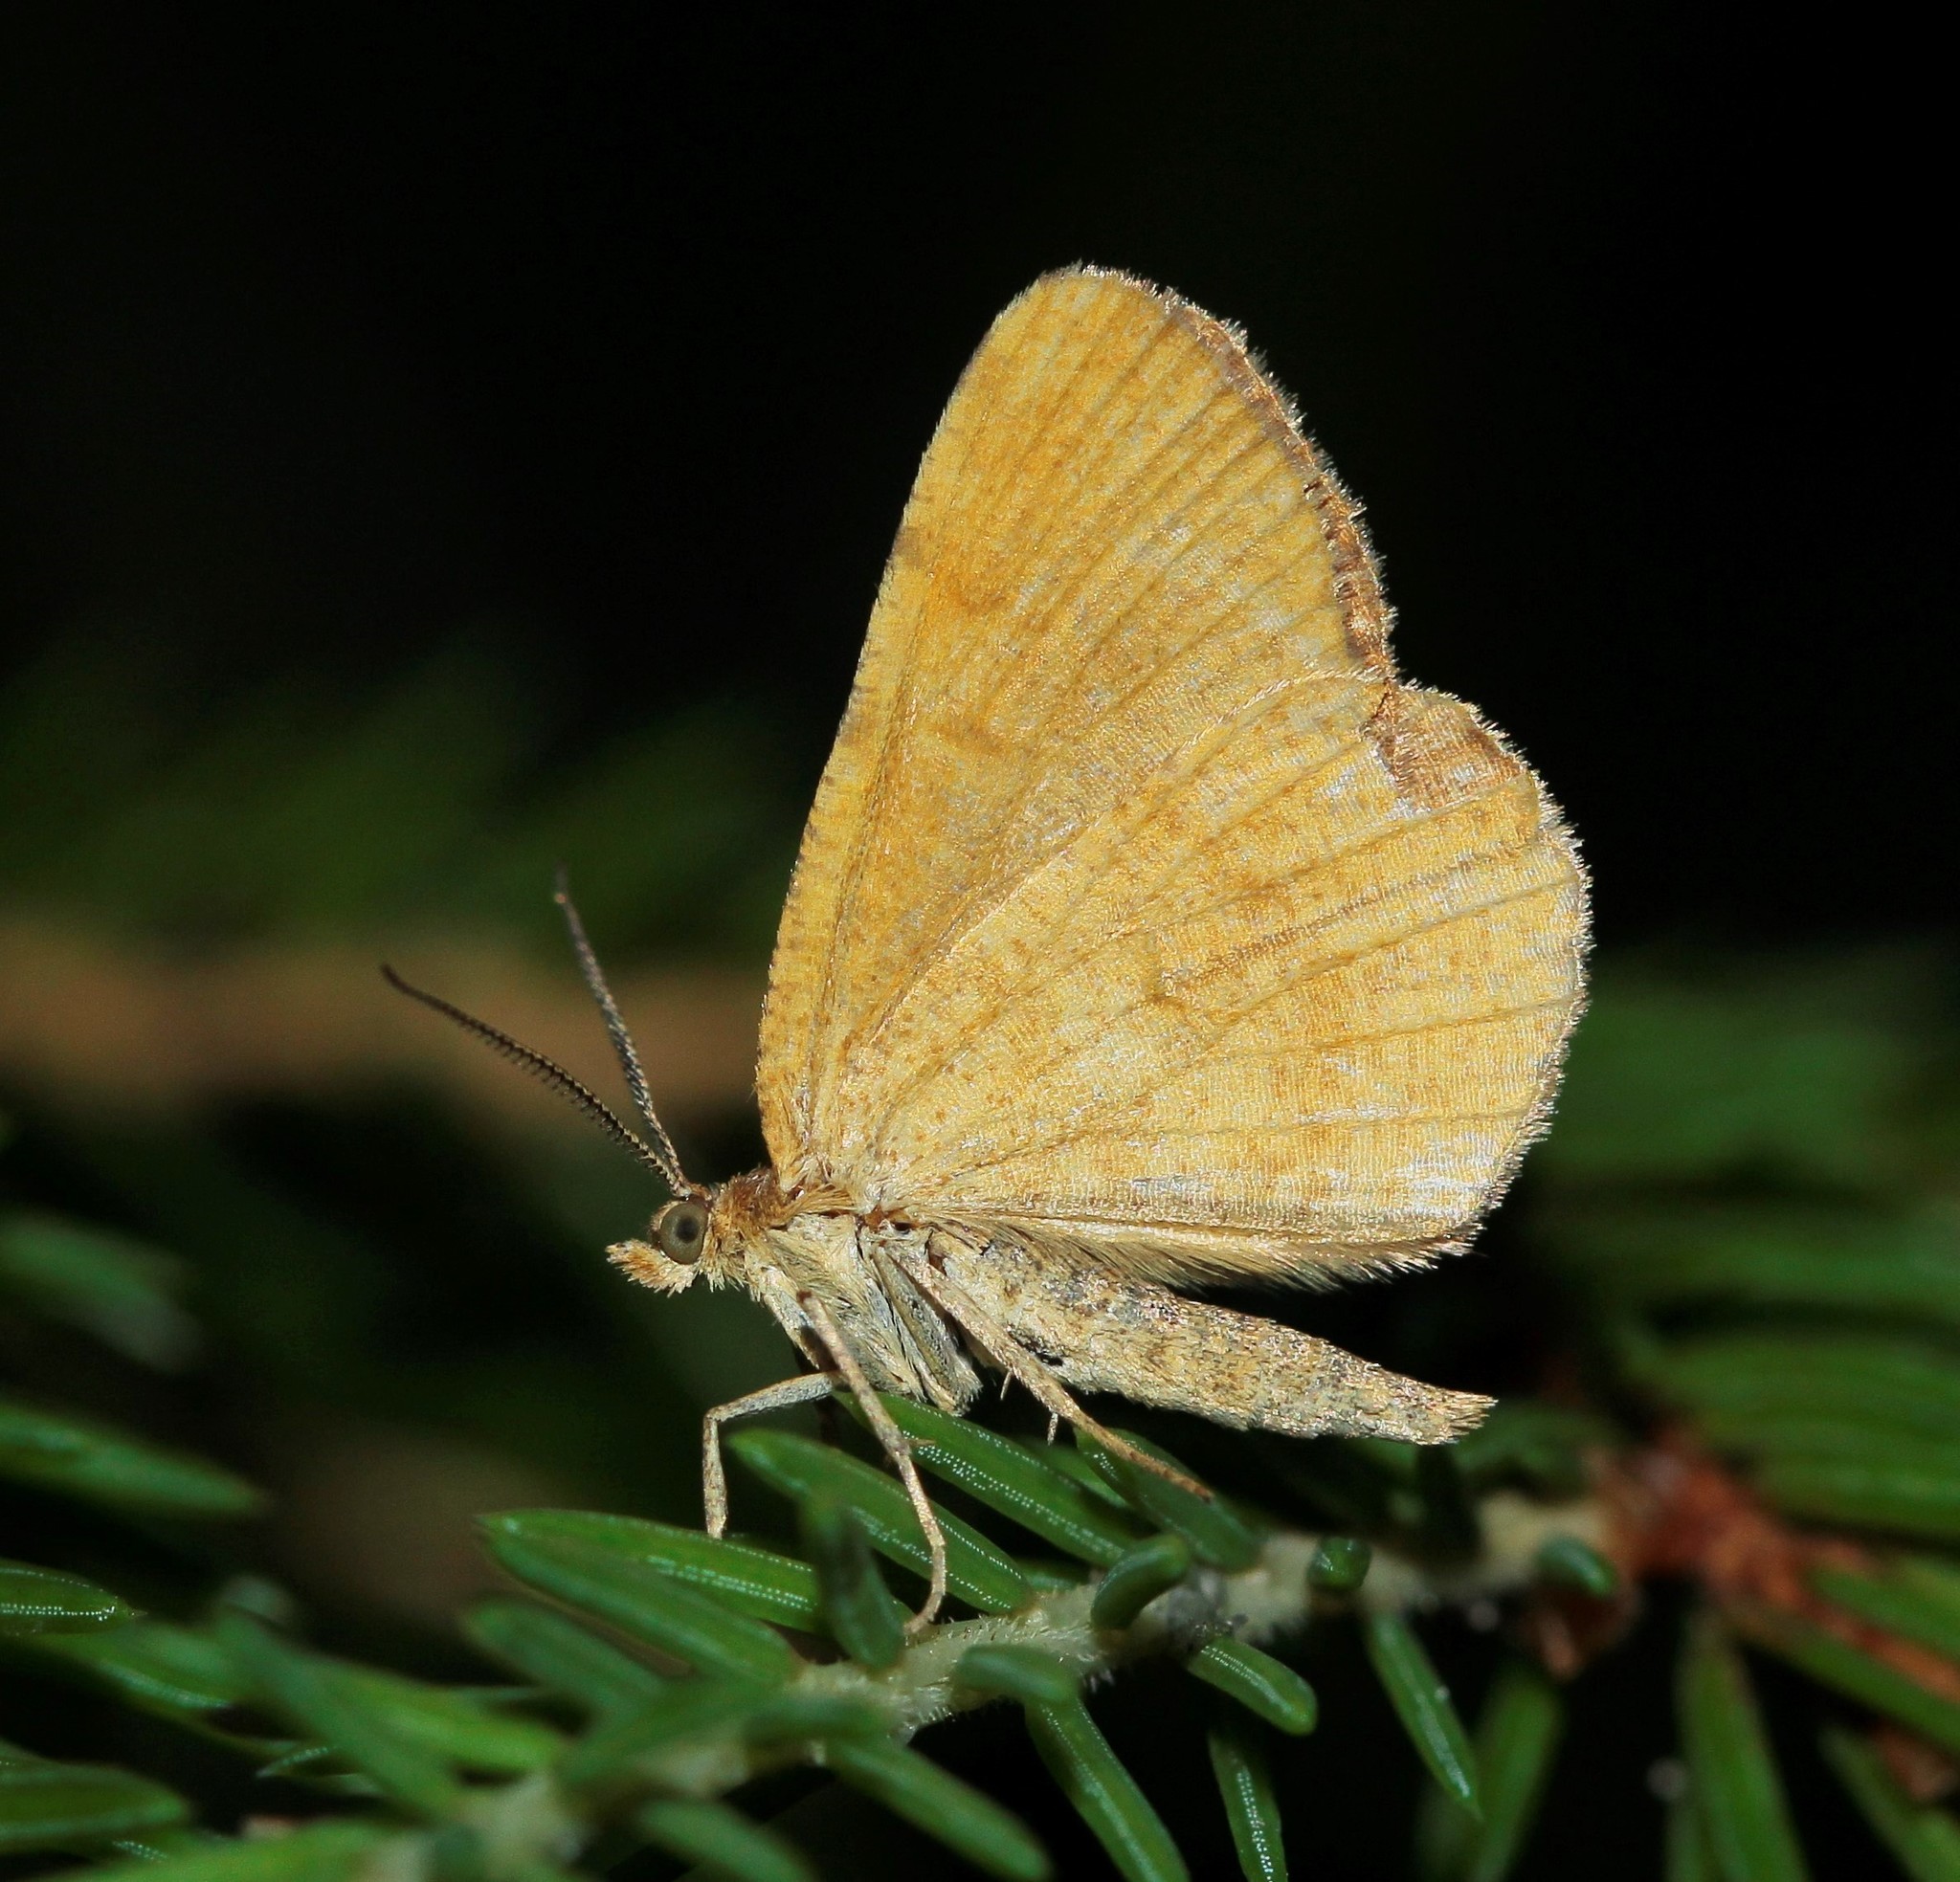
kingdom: Animalia
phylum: Arthropoda
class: Insecta
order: Lepidoptera
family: Geometridae
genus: Macaria
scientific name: Macaria brunneata
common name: Rannoch looper
